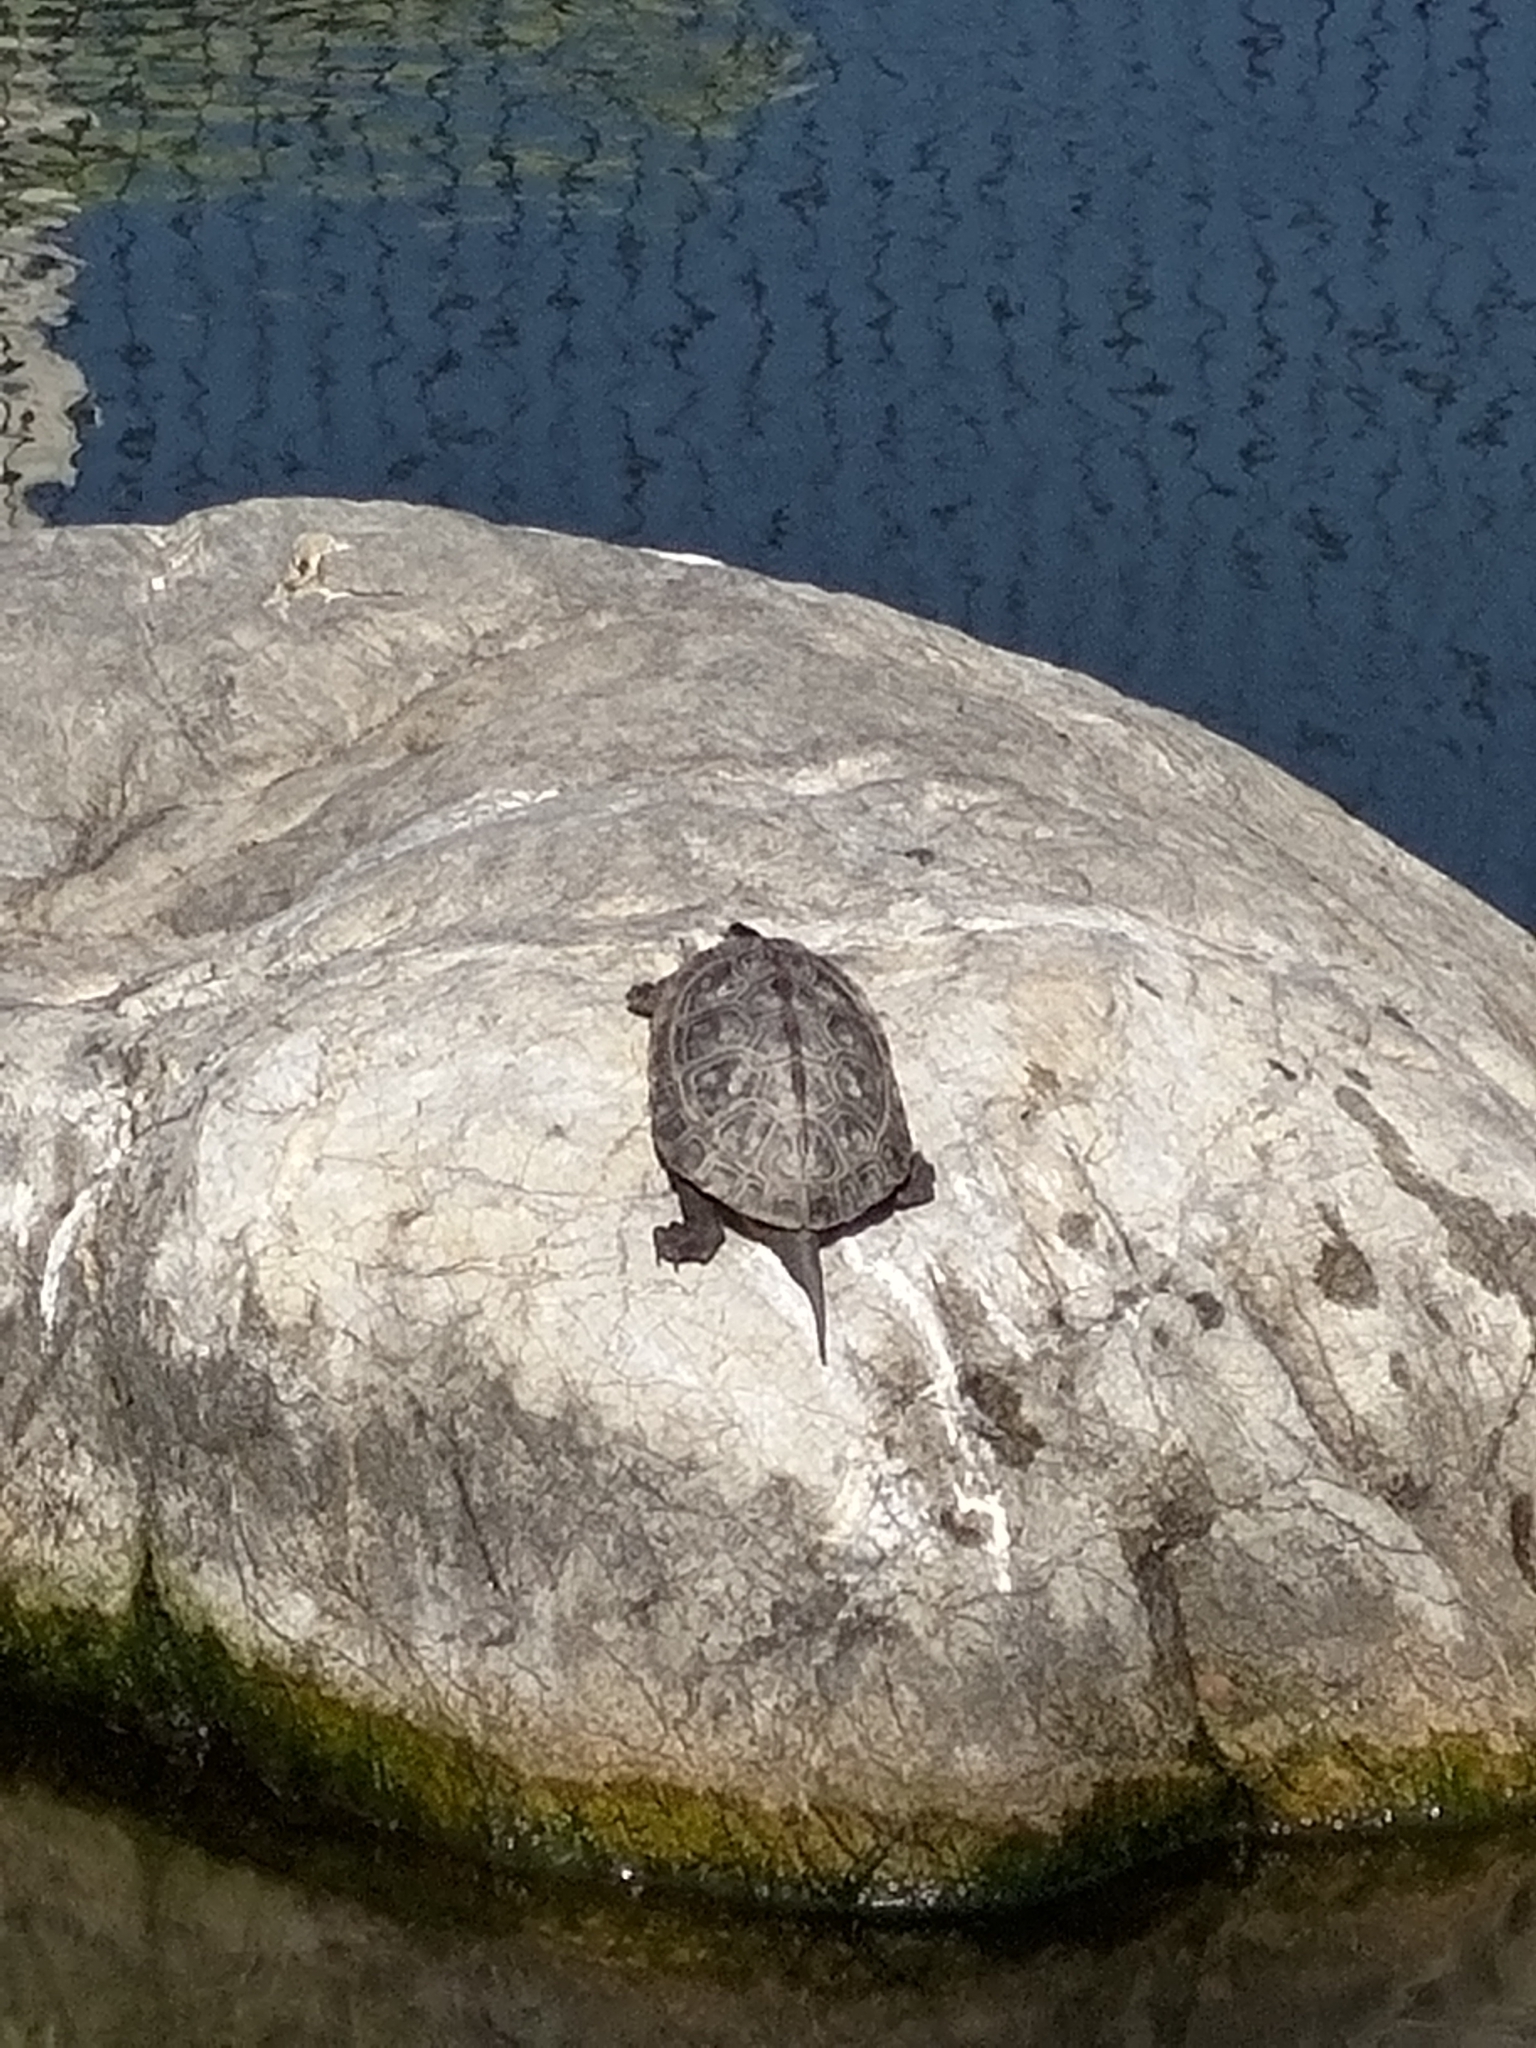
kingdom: Animalia
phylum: Chordata
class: Testudines
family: Geoemydidae
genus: Mauremys
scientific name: Mauremys sinensis
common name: Chinese stripe-necked turtle
